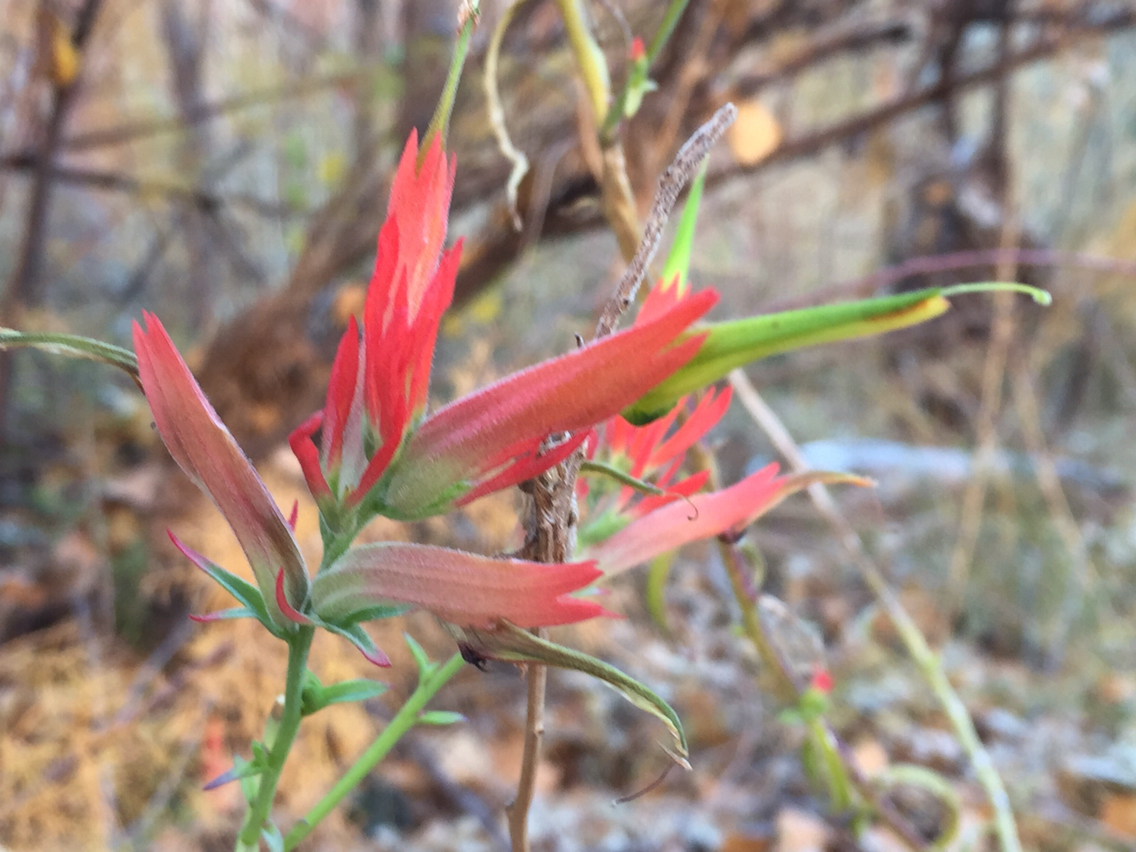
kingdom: Plantae
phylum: Tracheophyta
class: Magnoliopsida
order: Lamiales
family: Orobanchaceae
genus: Castilleja
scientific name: Castilleja linariifolia
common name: Wyoming paintbrush
